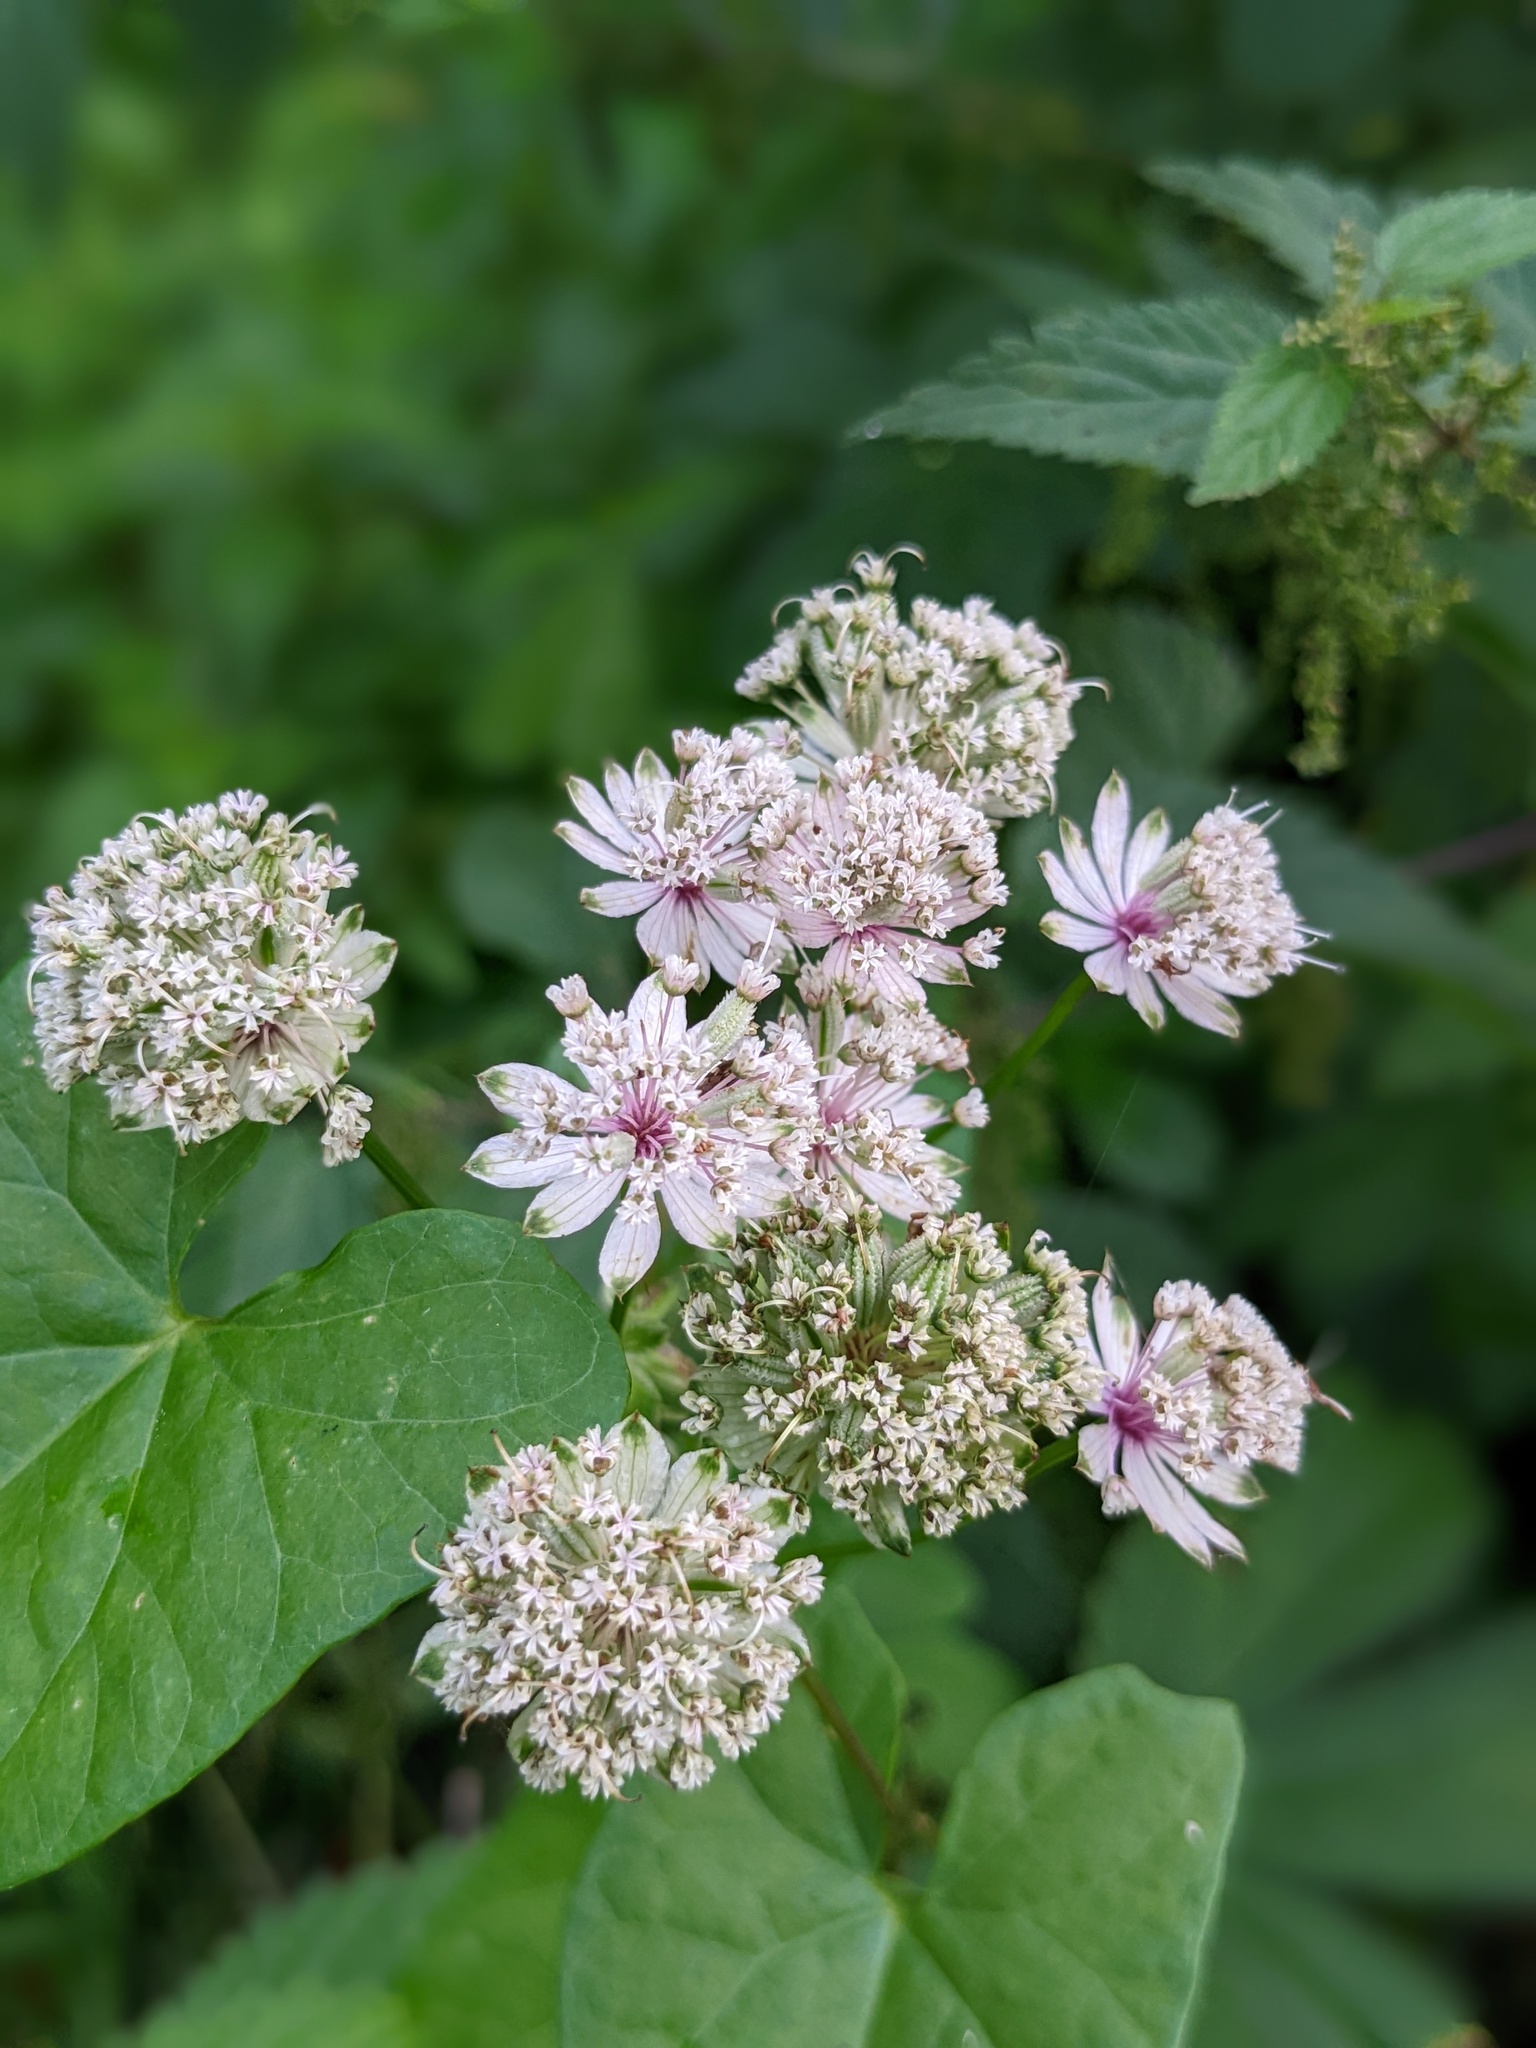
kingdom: Plantae
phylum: Tracheophyta
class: Magnoliopsida
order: Apiales
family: Apiaceae
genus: Astrantia
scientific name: Astrantia major
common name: Greater masterwort
